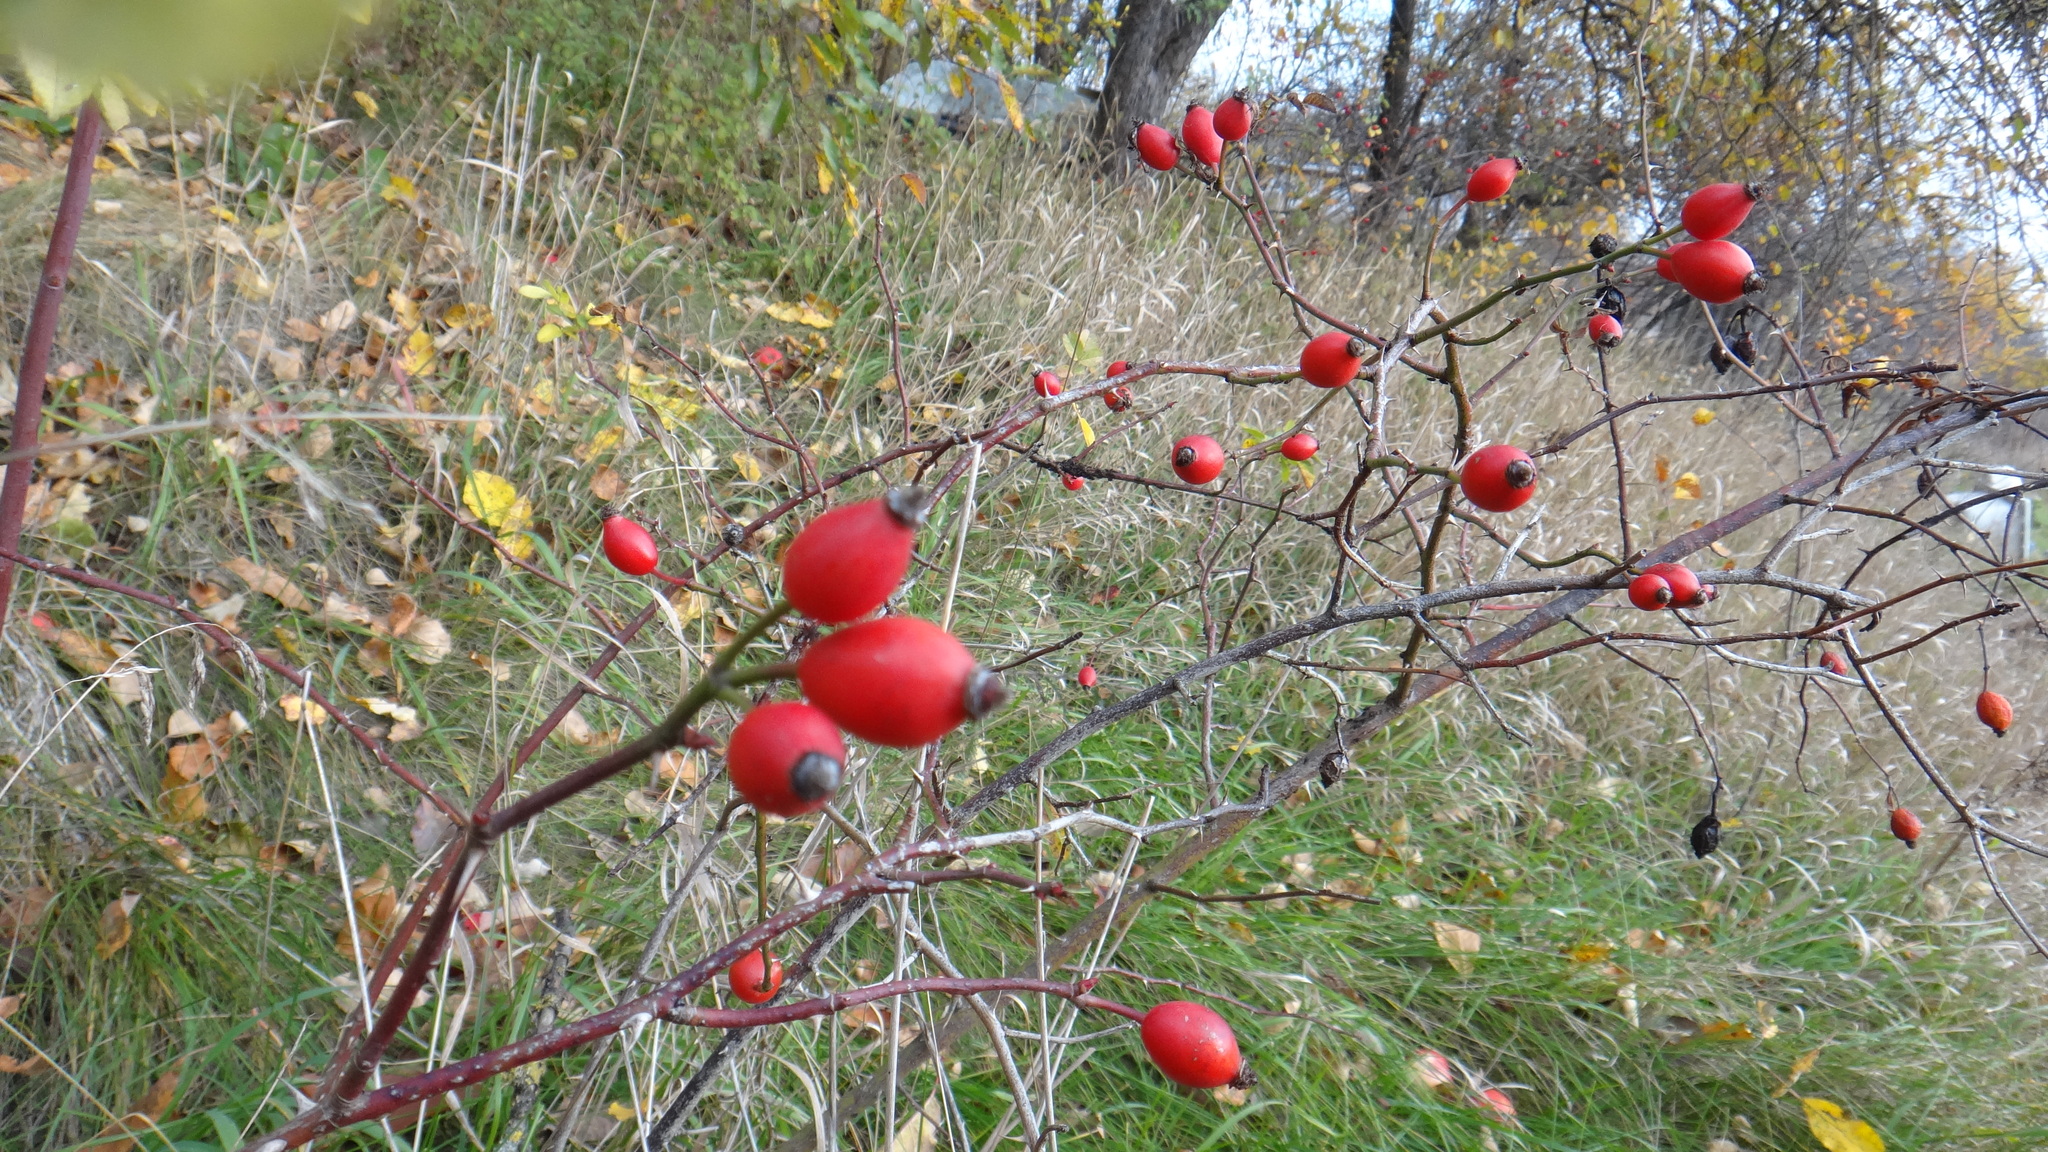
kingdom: Plantae
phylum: Tracheophyta
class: Magnoliopsida
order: Rosales
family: Rosaceae
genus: Rosa
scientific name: Rosa canina
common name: Dog rose
